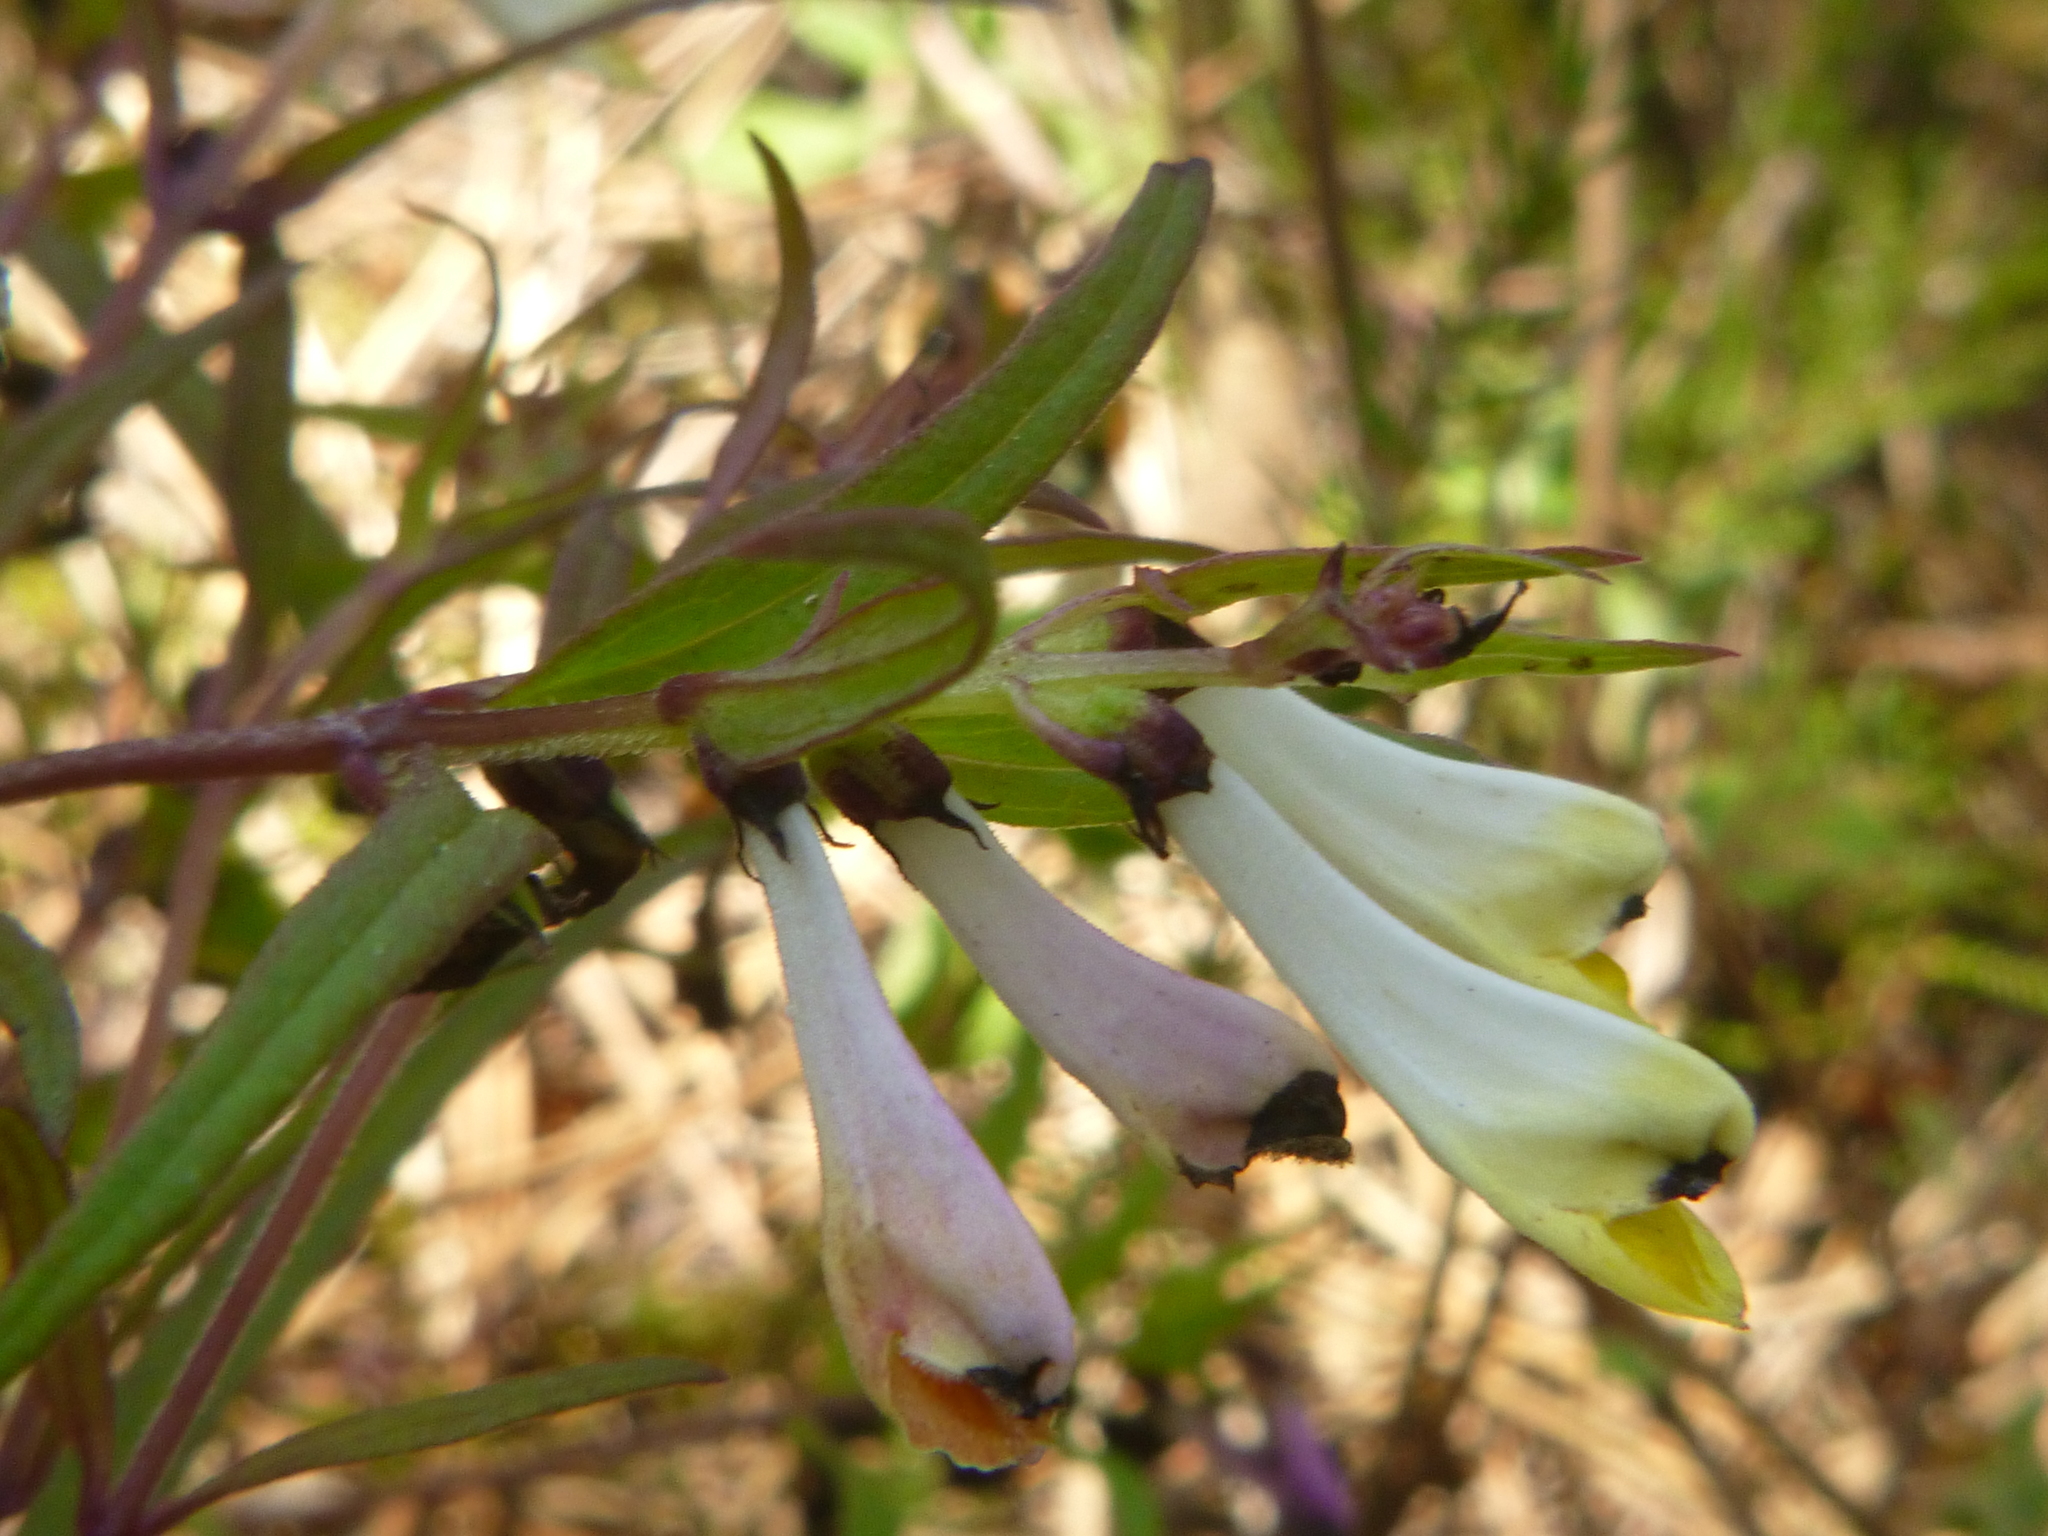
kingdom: Plantae
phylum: Tracheophyta
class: Magnoliopsida
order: Lamiales
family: Orobanchaceae
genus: Melampyrum
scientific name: Melampyrum pratense
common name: Common cow-wheat
